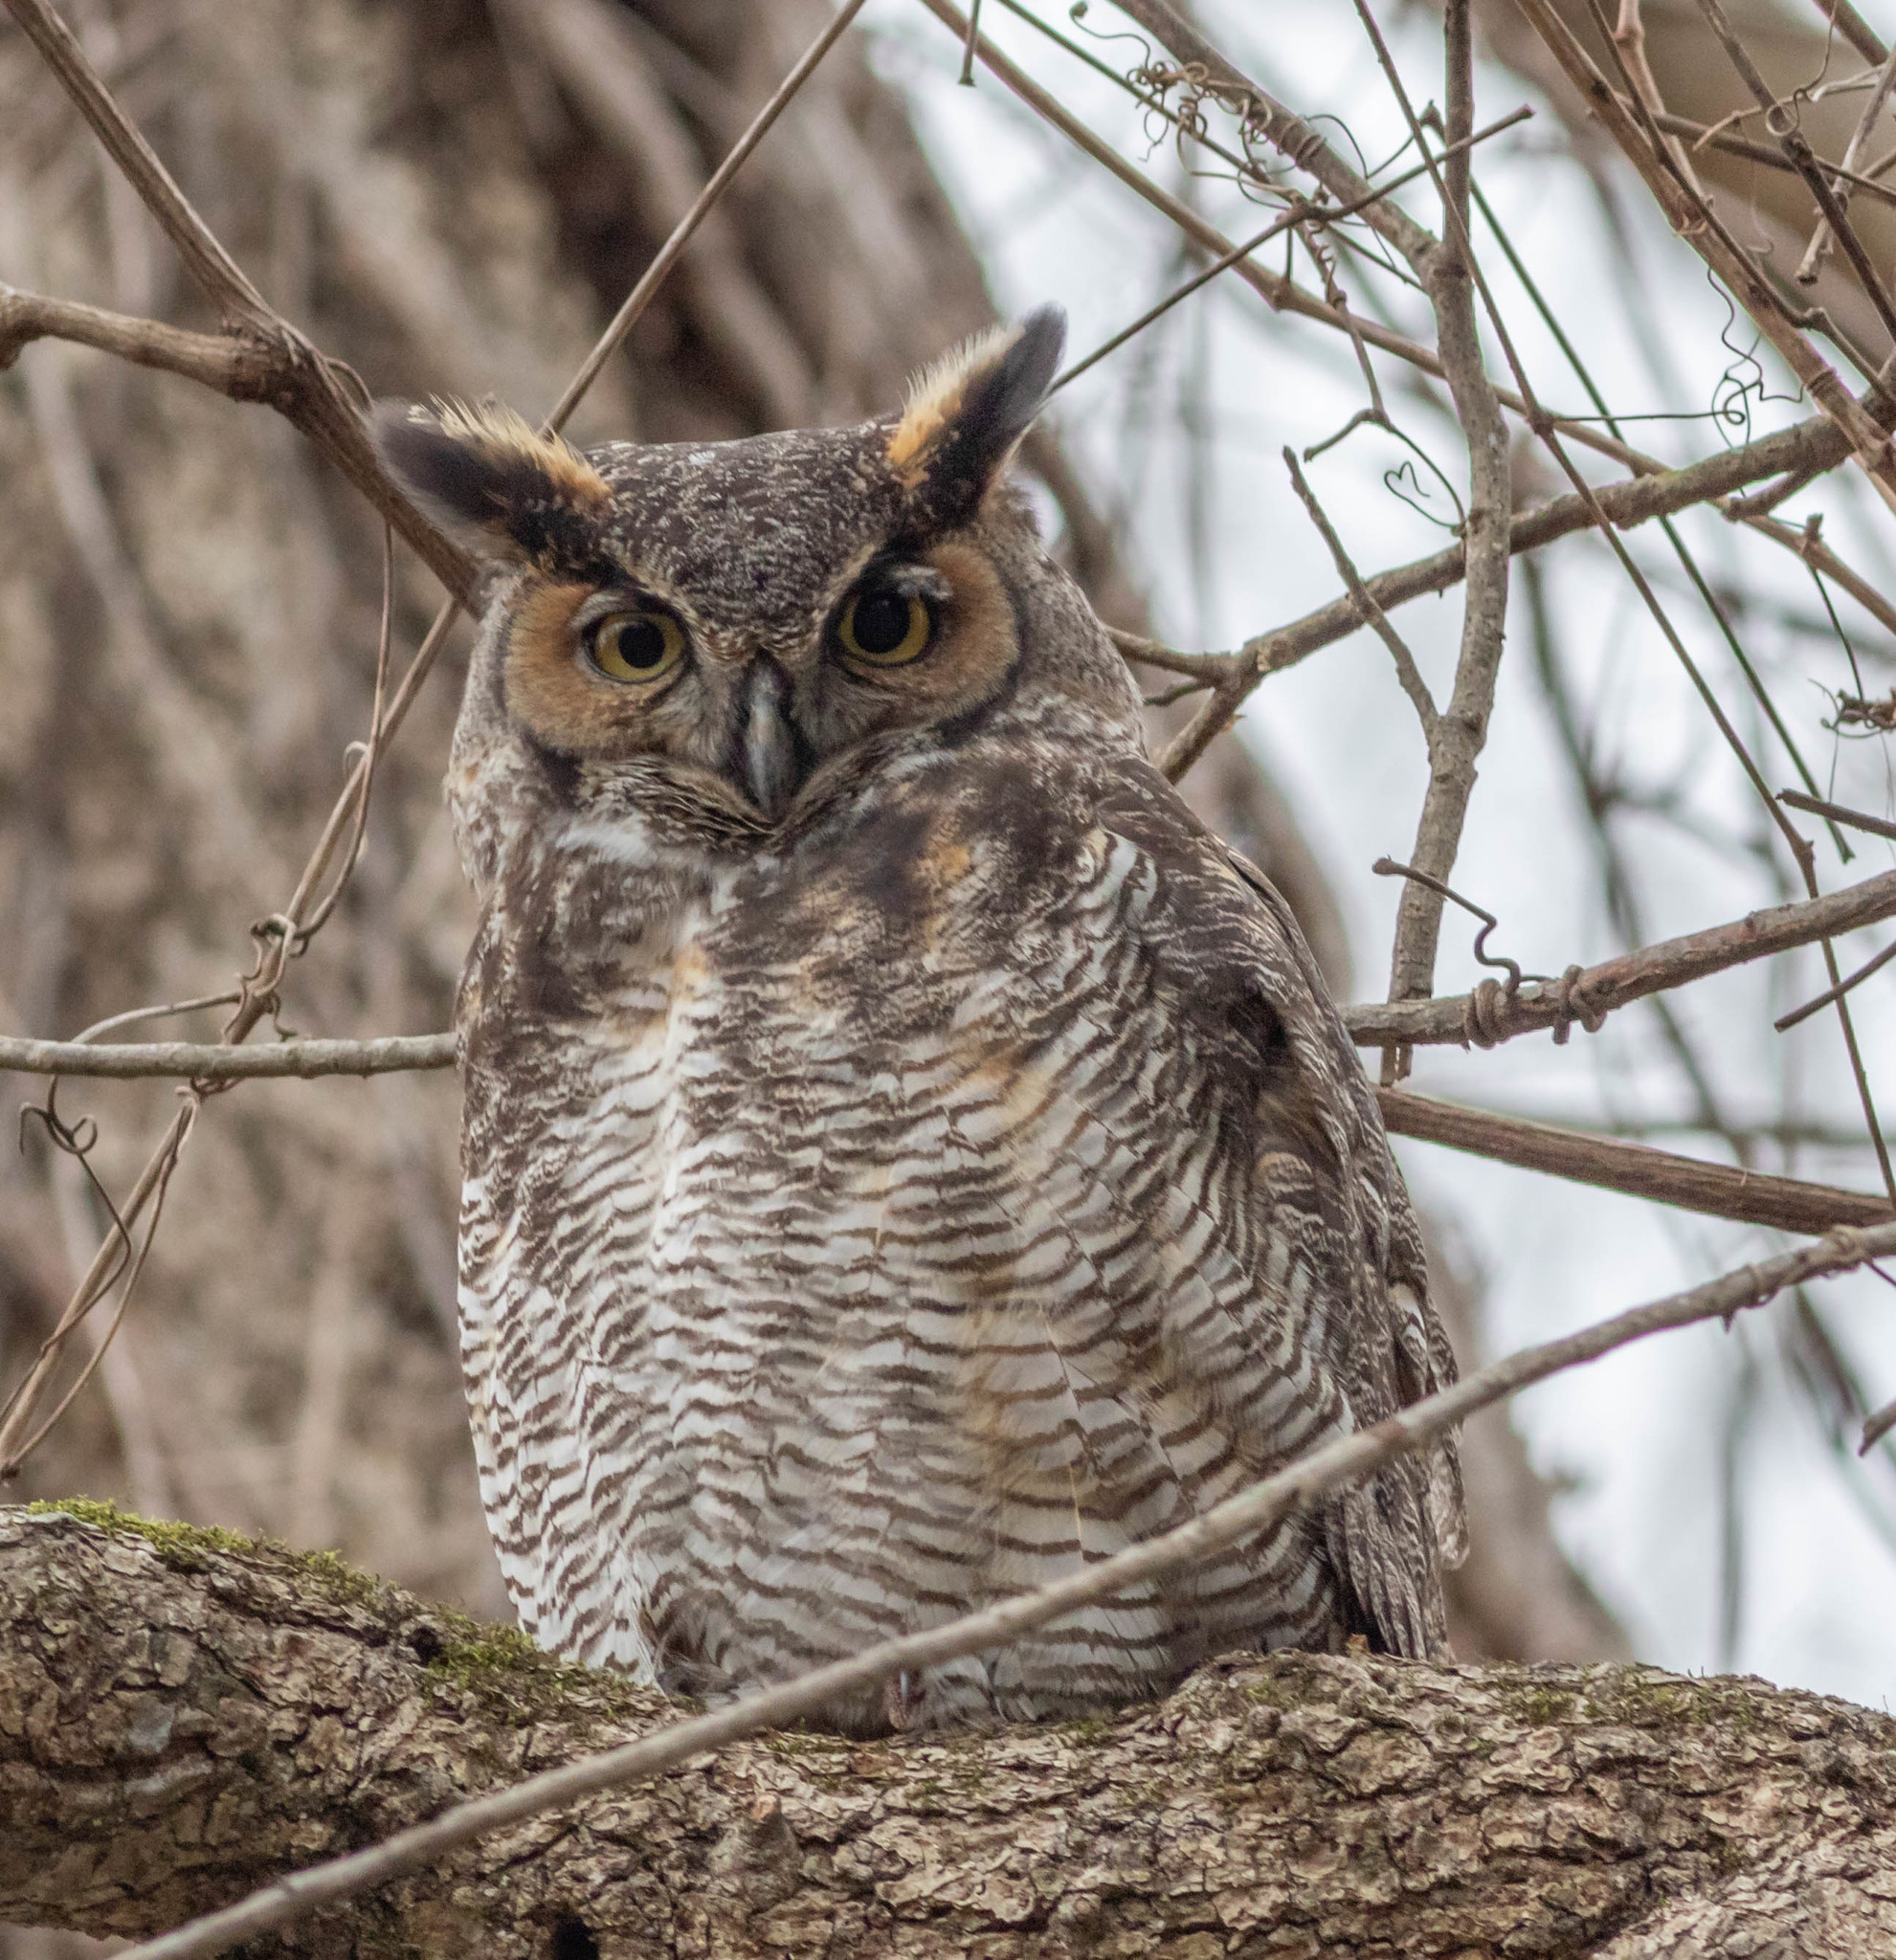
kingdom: Animalia
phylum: Chordata
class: Aves
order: Strigiformes
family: Strigidae
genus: Bubo
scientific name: Bubo virginianus
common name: Great horned owl
